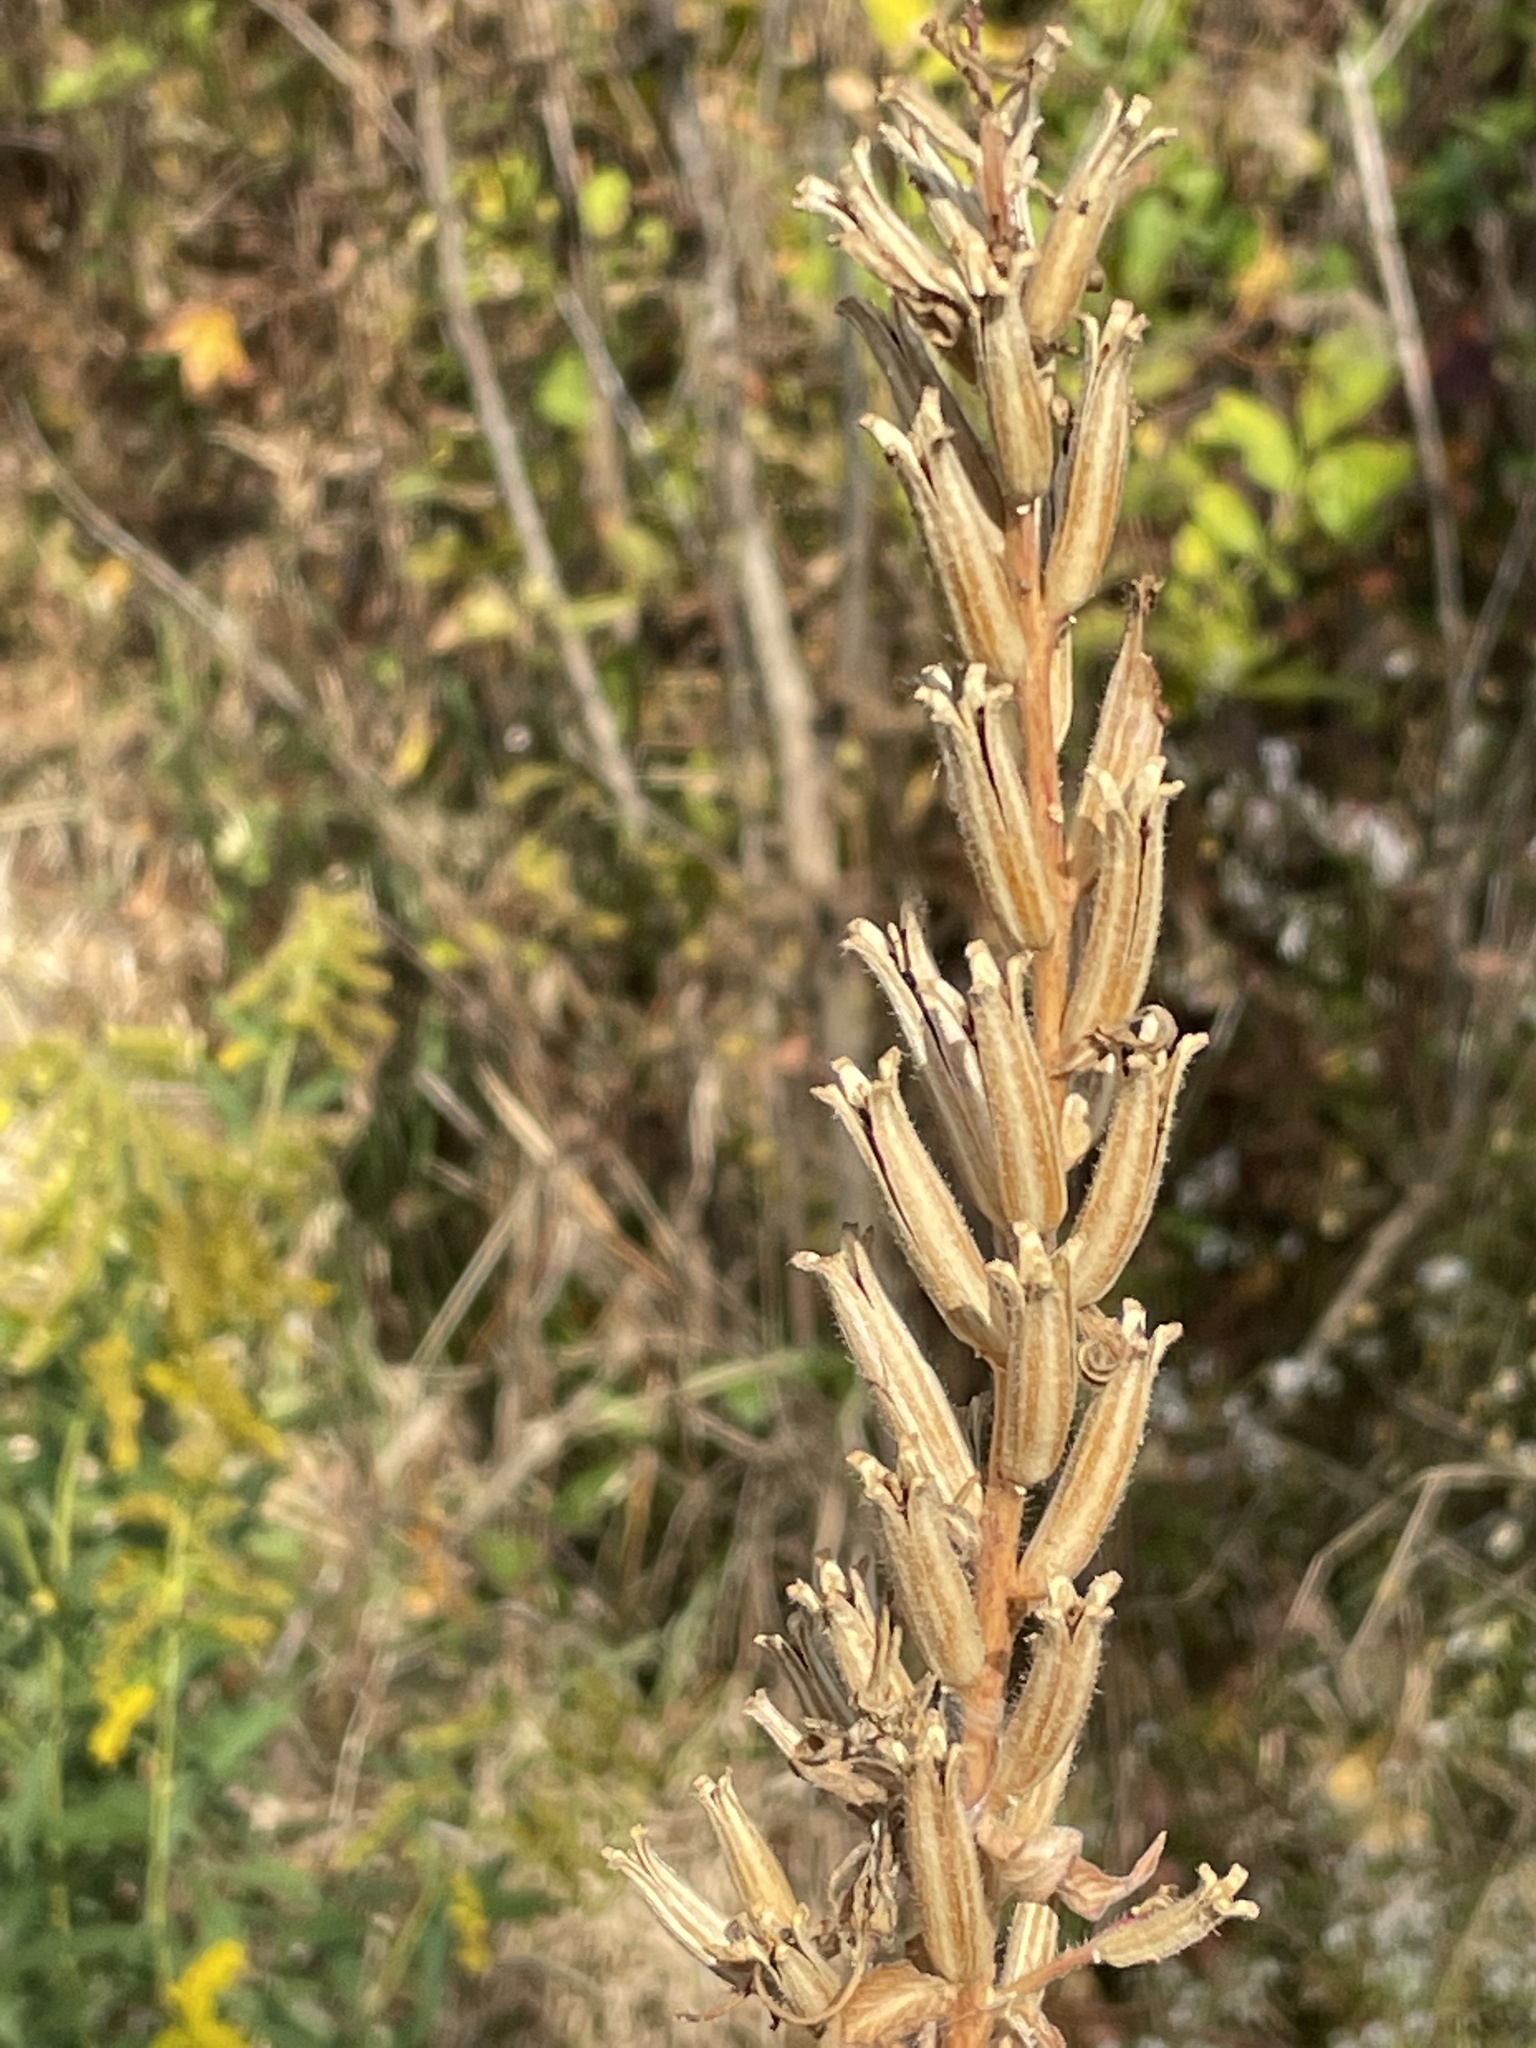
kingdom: Plantae
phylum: Tracheophyta
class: Magnoliopsida
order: Myrtales
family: Onagraceae
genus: Oenothera
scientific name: Oenothera biennis
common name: Common evening-primrose
